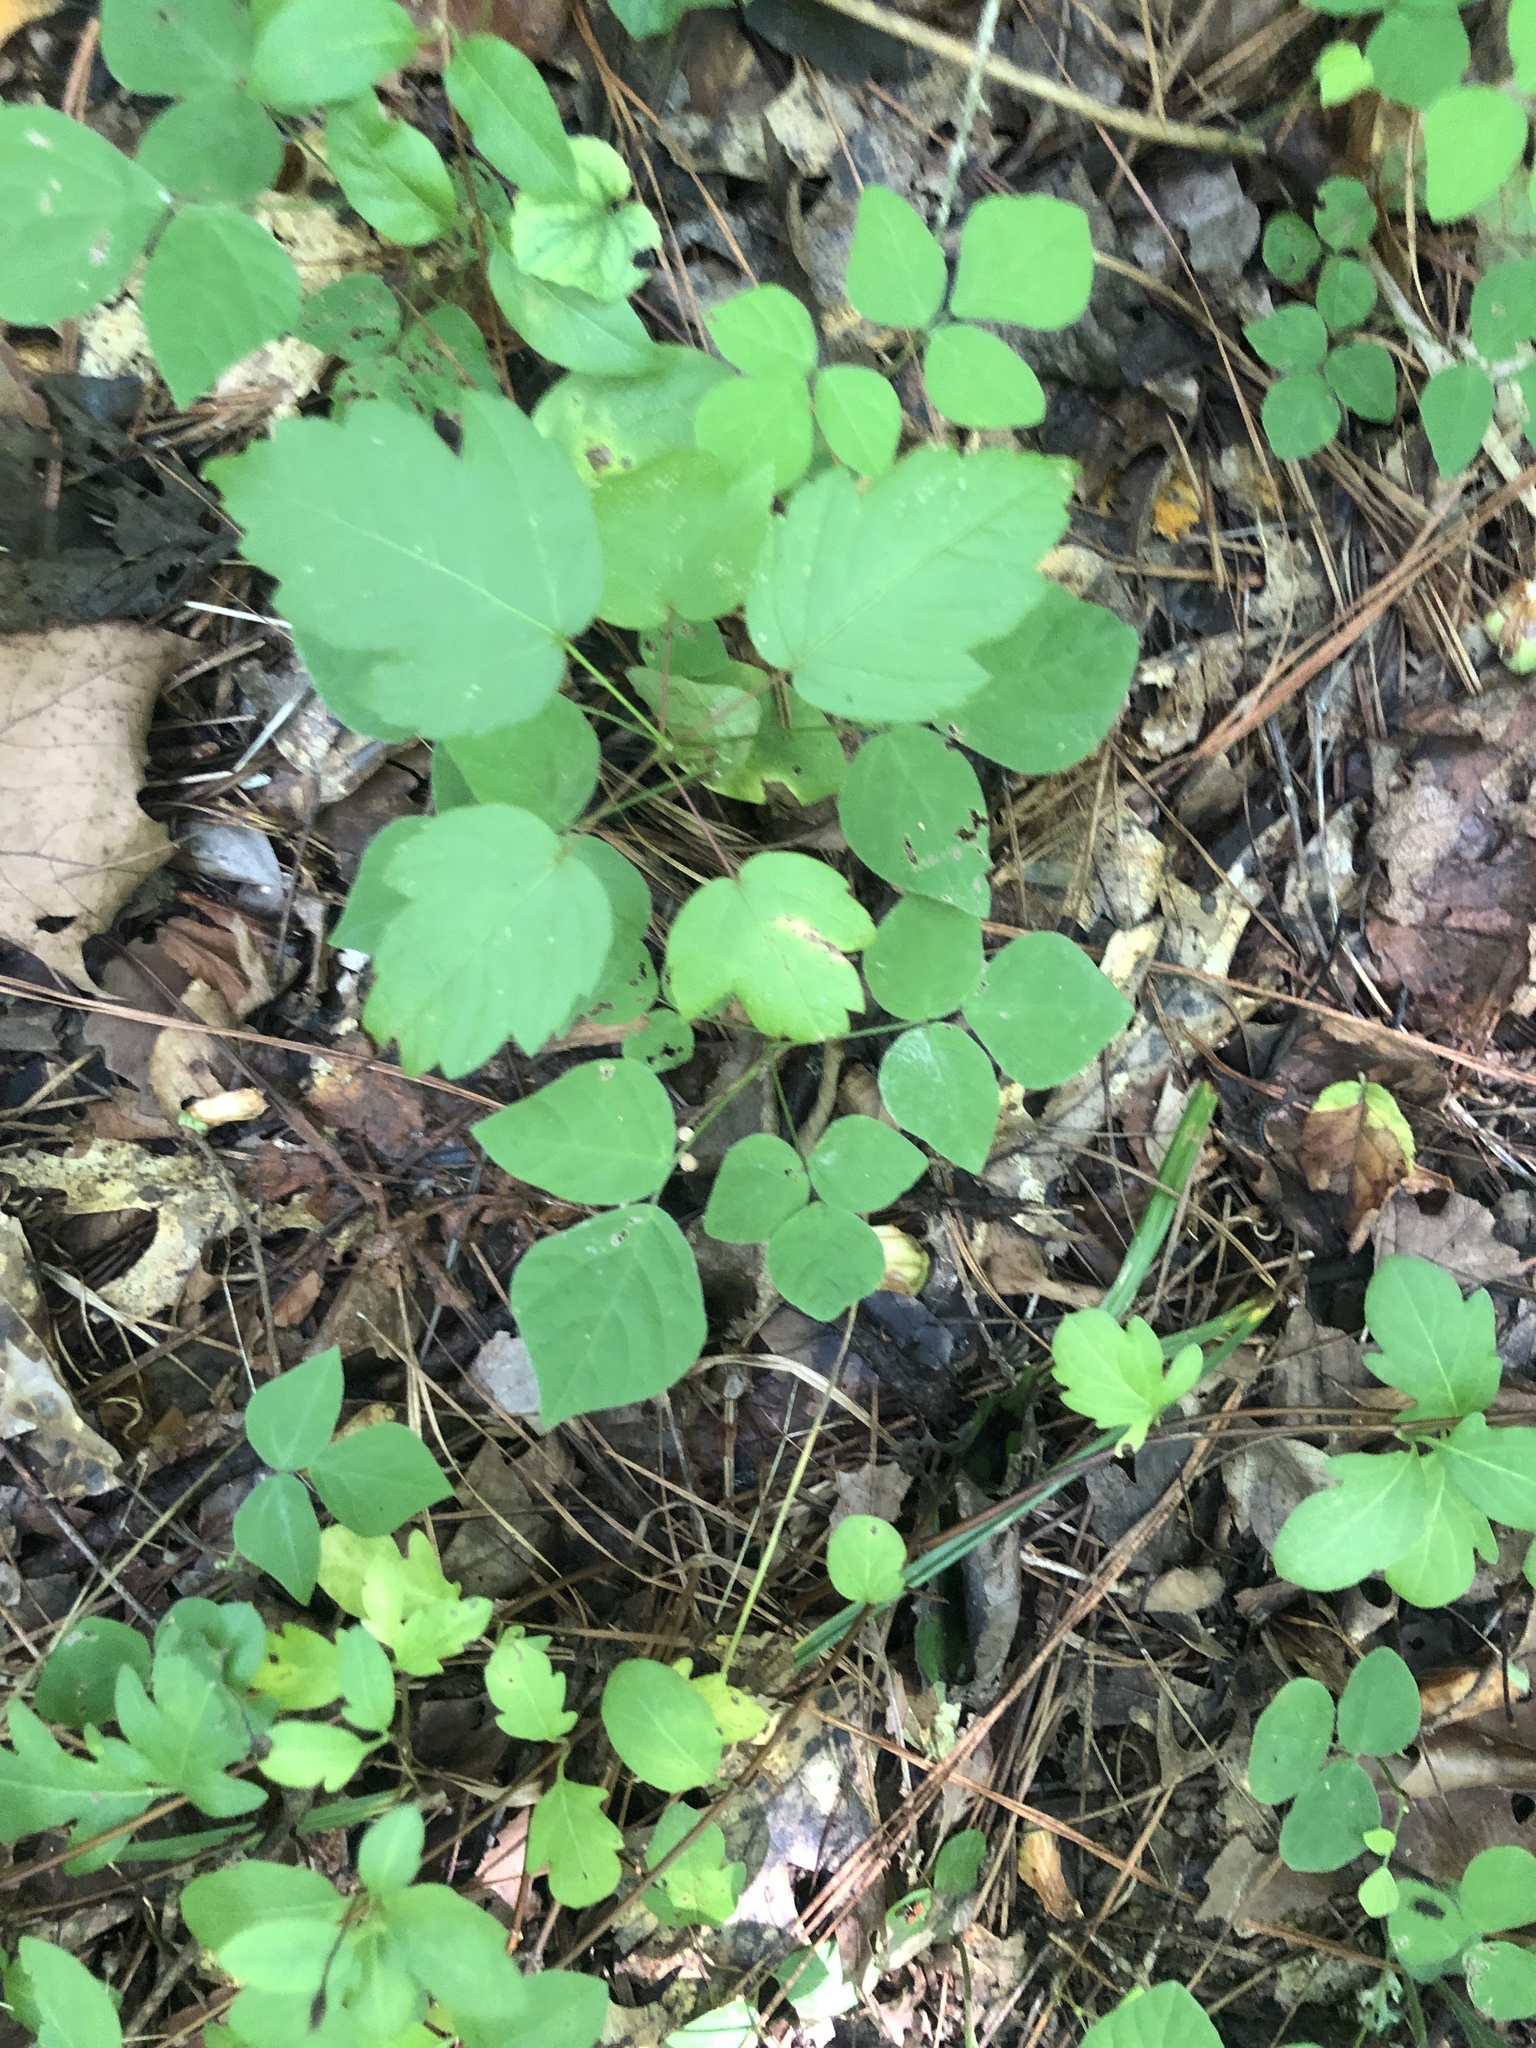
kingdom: Plantae
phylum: Tracheophyta
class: Magnoliopsida
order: Fabales
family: Fabaceae
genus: Hylodesmum
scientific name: Hylodesmum pauciflorum
